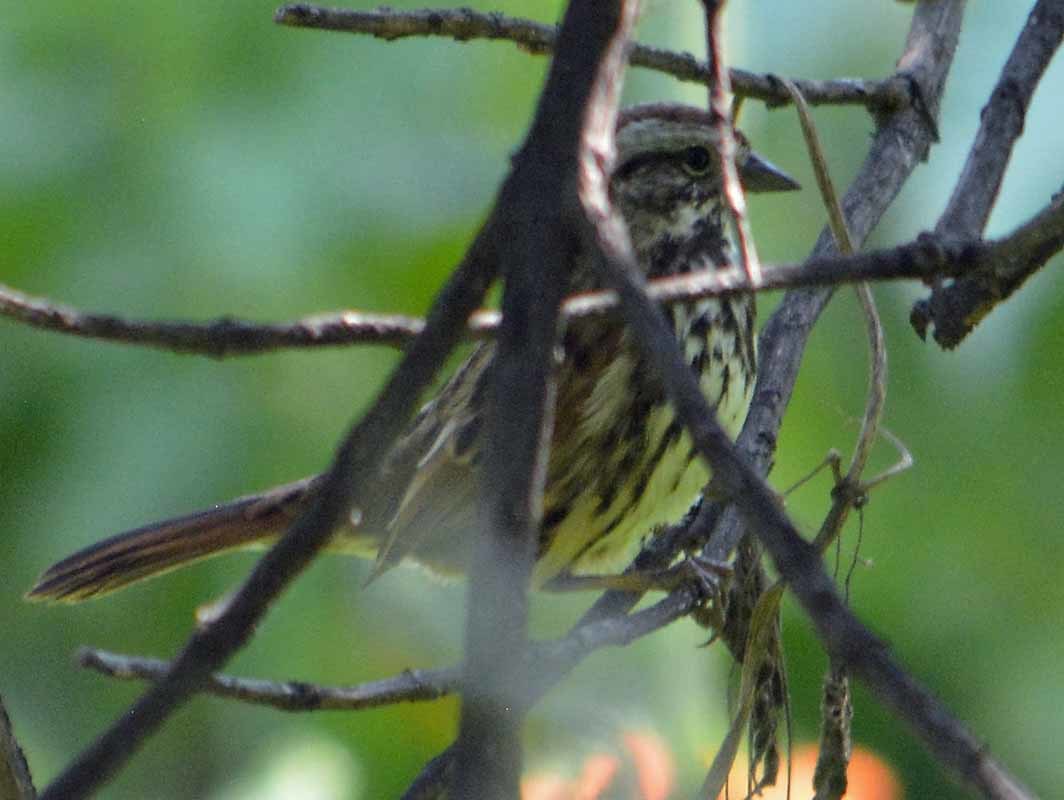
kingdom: Animalia
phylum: Chordata
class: Aves
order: Passeriformes
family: Passerellidae
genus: Melospiza
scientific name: Melospiza melodia
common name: Song sparrow
